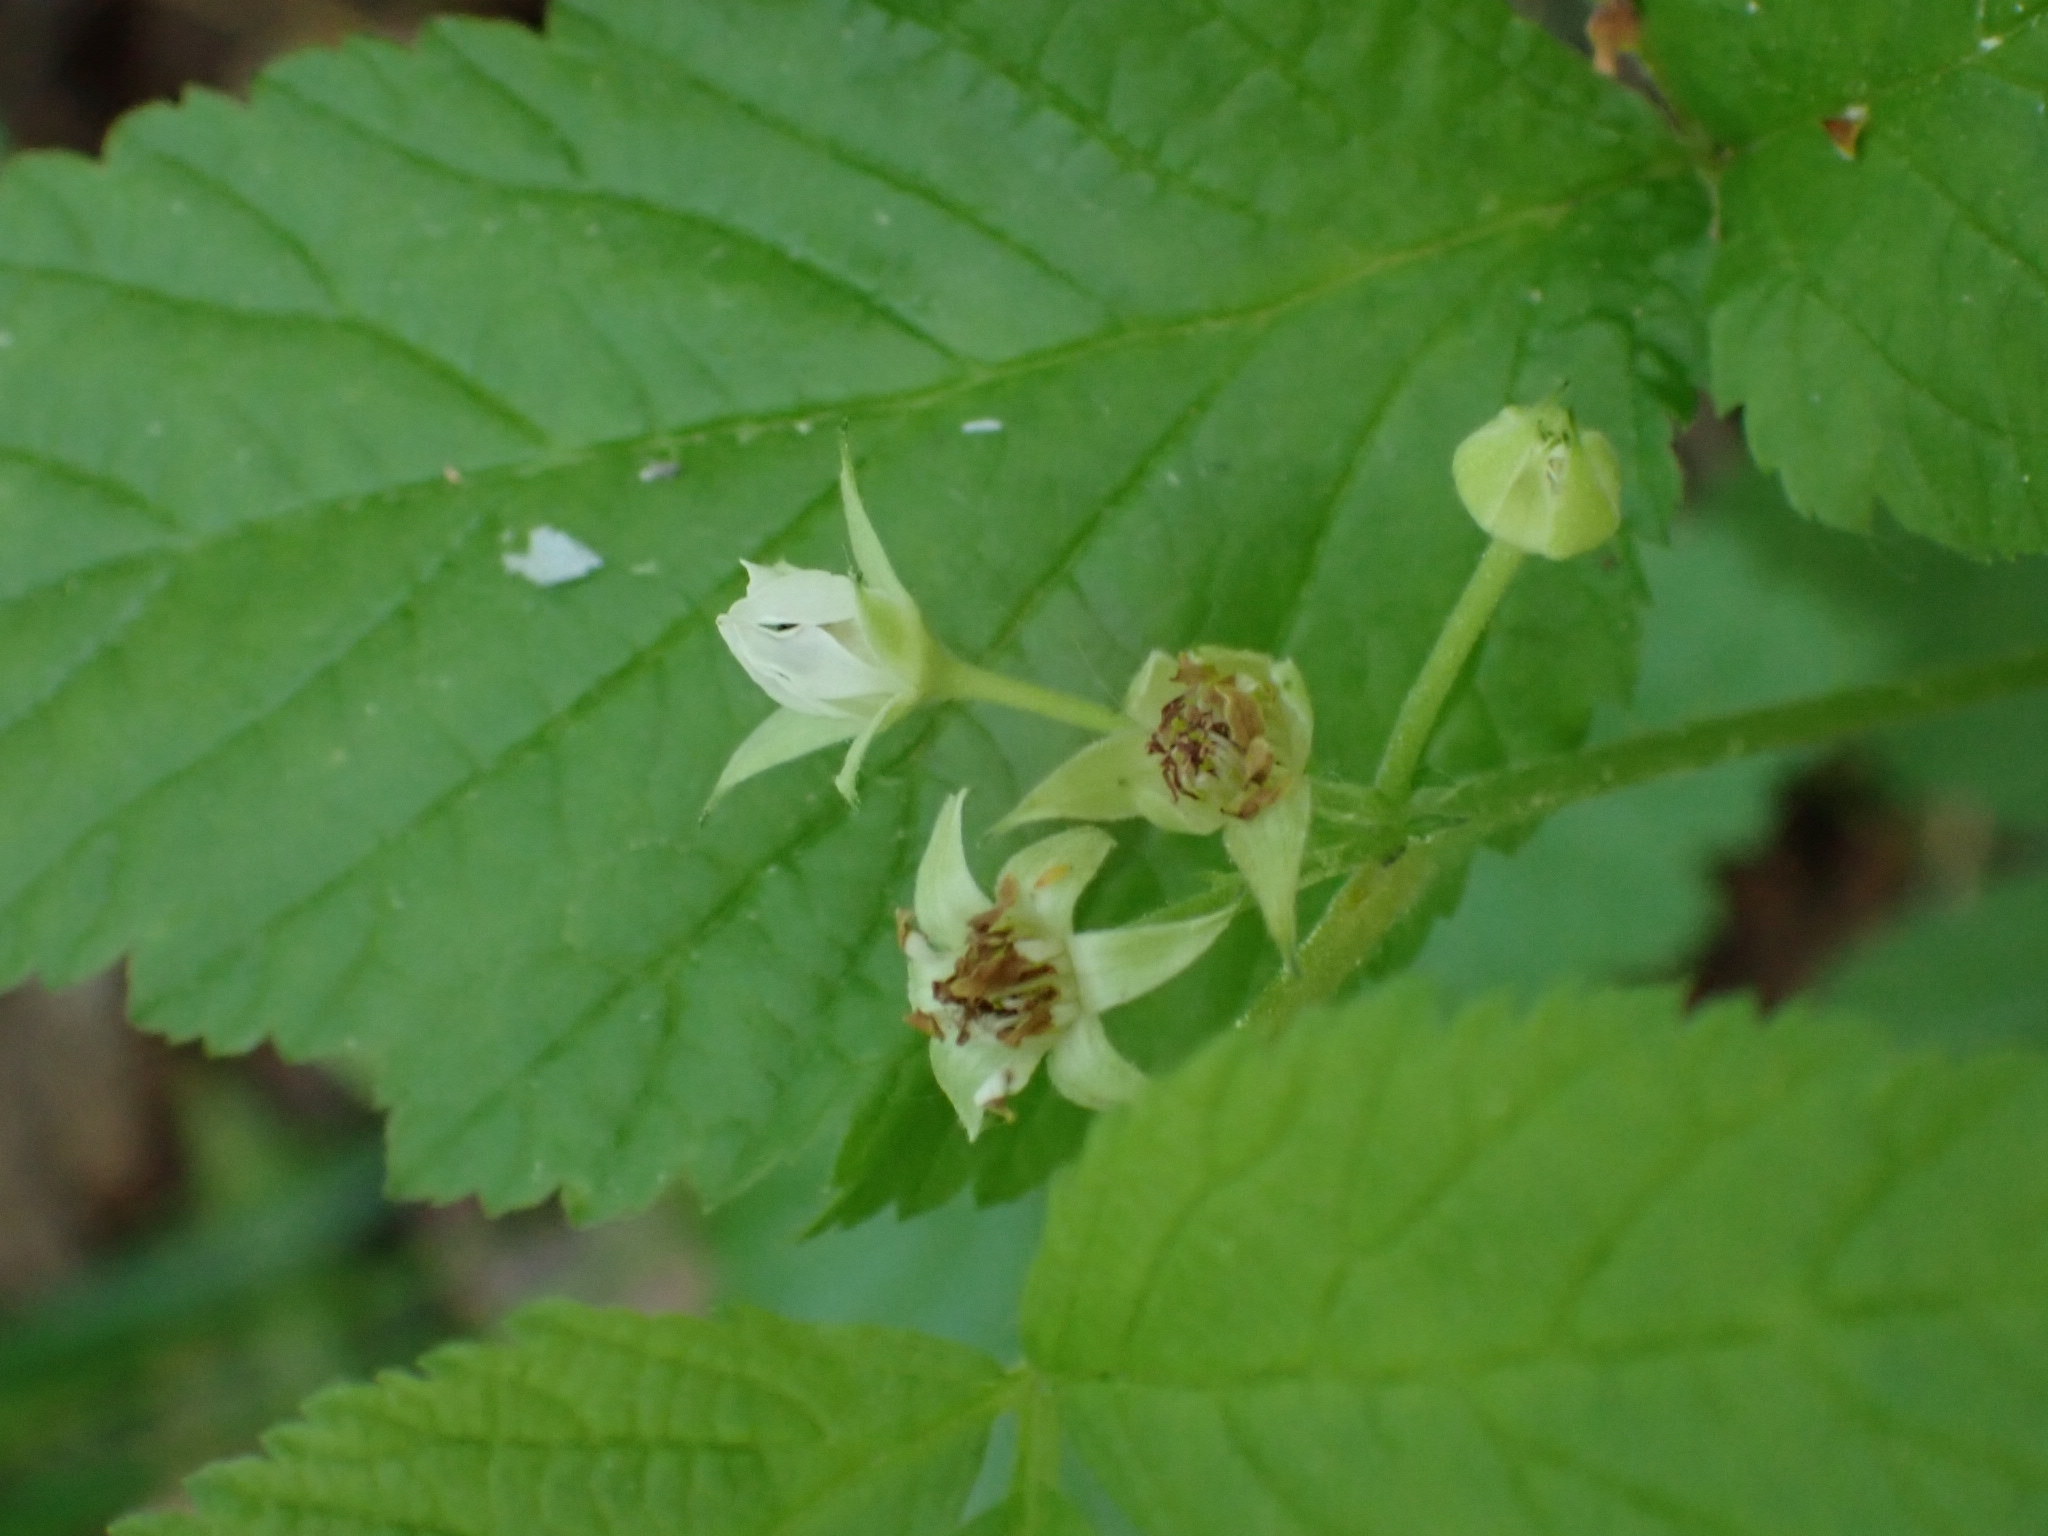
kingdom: Plantae
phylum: Tracheophyta
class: Magnoliopsida
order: Rosales
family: Rosaceae
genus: Rubus
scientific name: Rubus saxatilis
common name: Stone bramble
